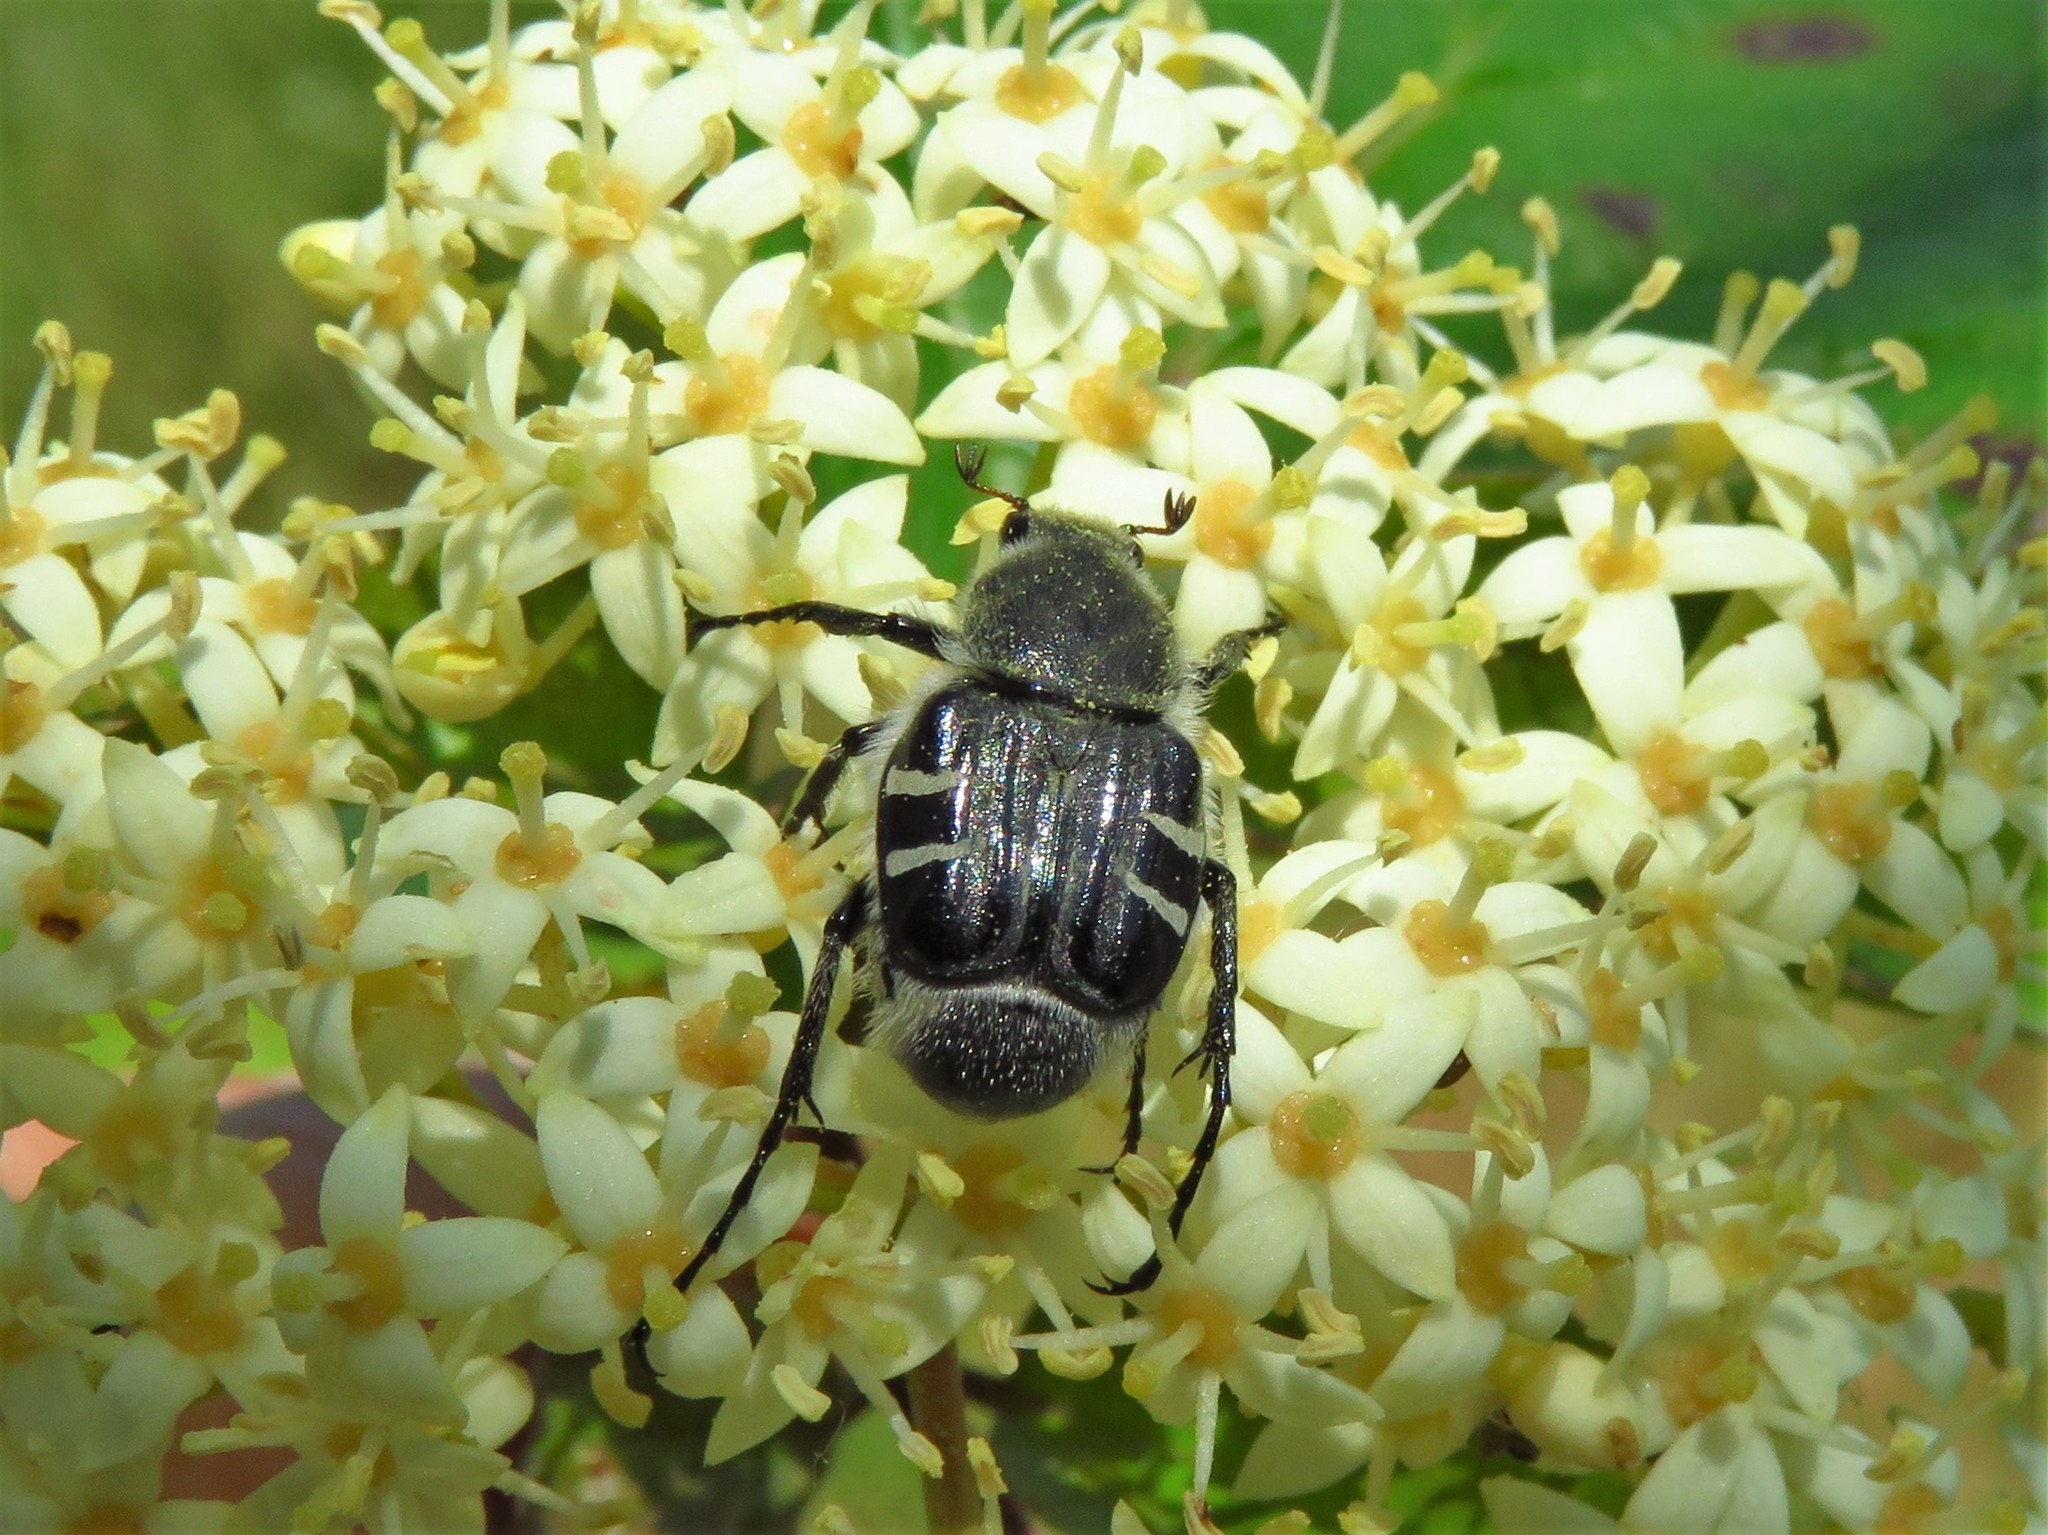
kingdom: Animalia
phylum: Arthropoda
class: Insecta
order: Coleoptera
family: Scarabaeidae
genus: Trichiotinus
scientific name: Trichiotinus texanus
